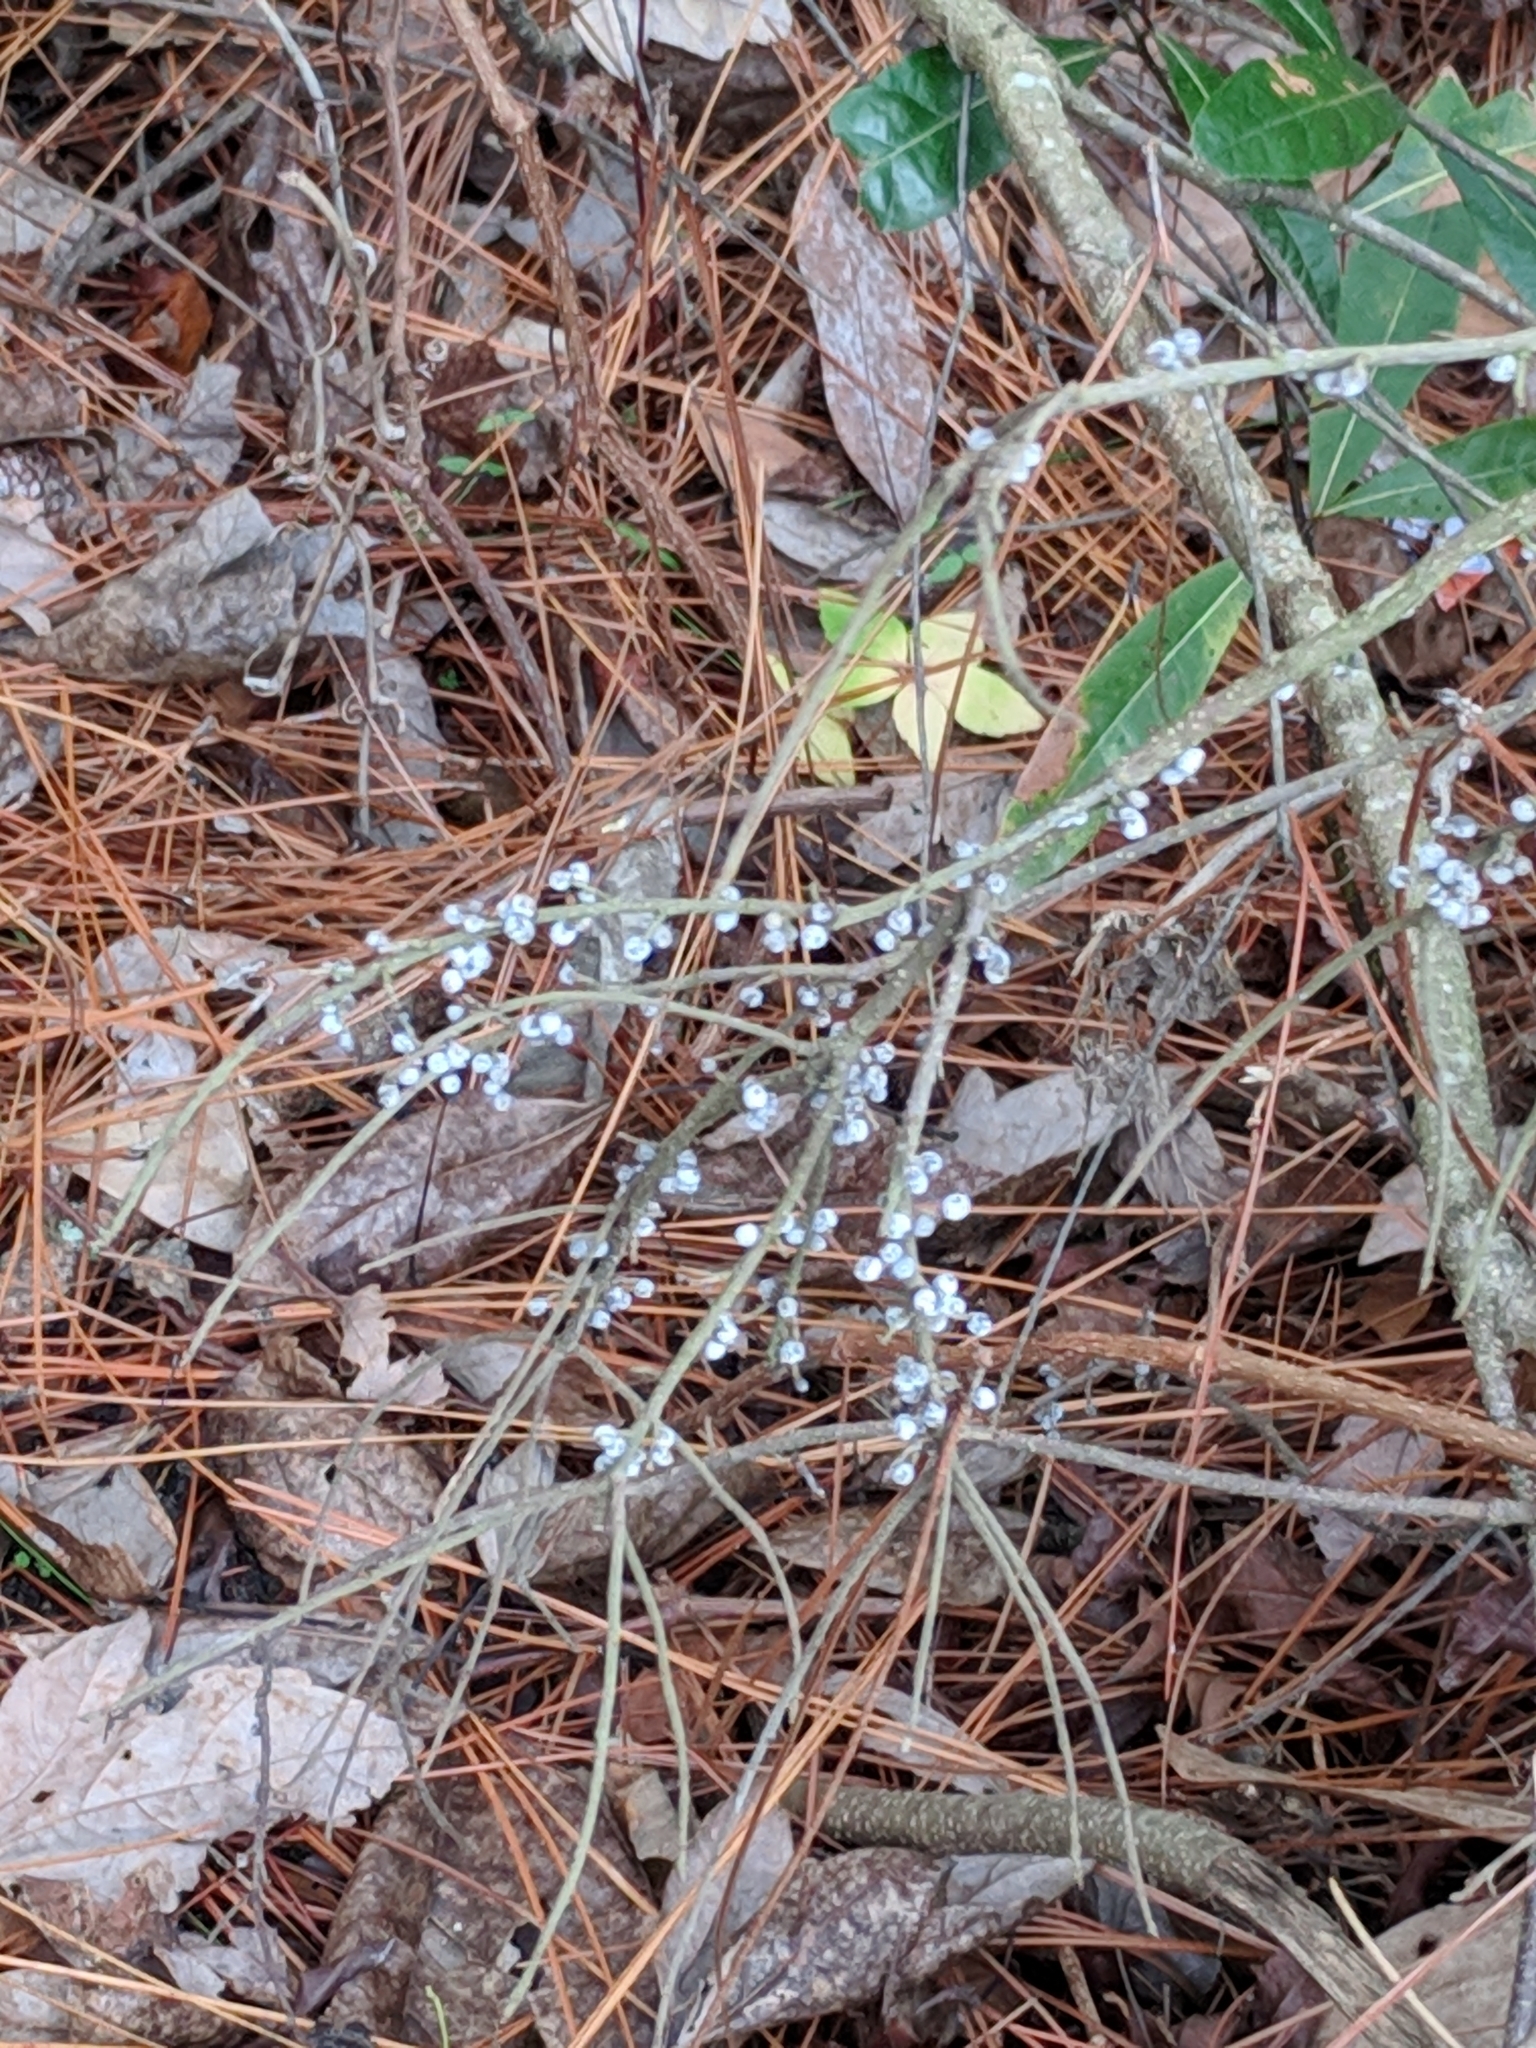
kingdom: Plantae
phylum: Tracheophyta
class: Magnoliopsida
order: Fagales
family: Myricaceae
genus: Morella
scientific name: Morella cerifera
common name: Wax myrtle
